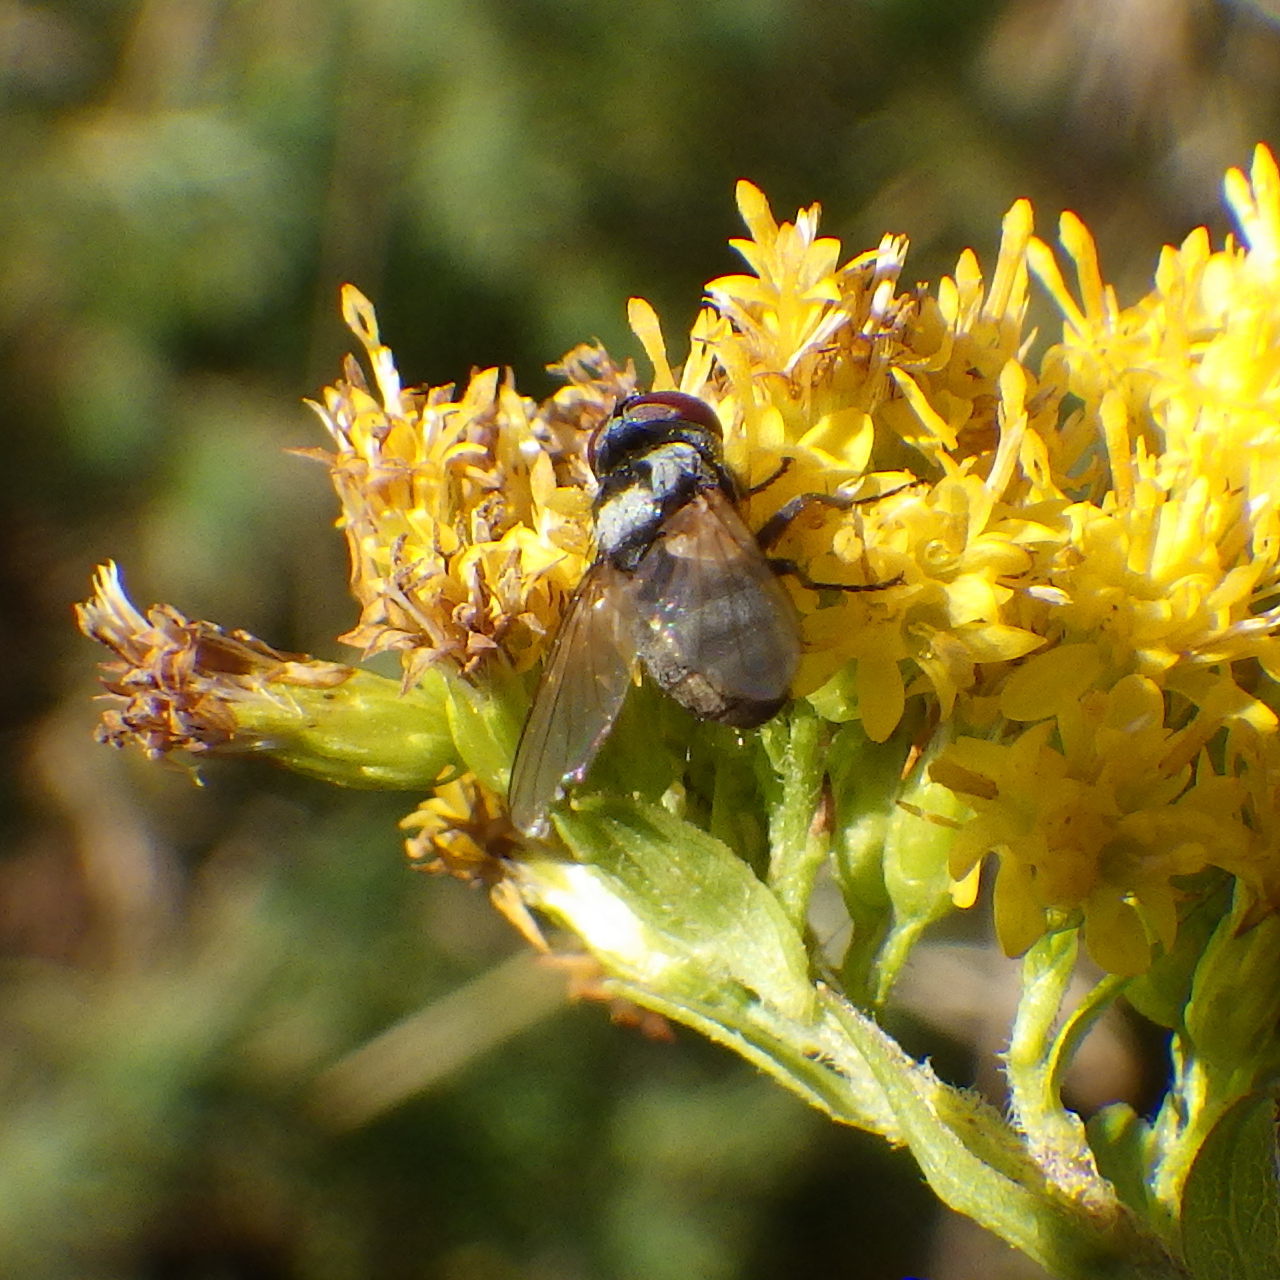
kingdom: Animalia
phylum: Arthropoda
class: Insecta
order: Diptera
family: Tachinidae
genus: Strongygaster
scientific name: Strongygaster triangulifera
